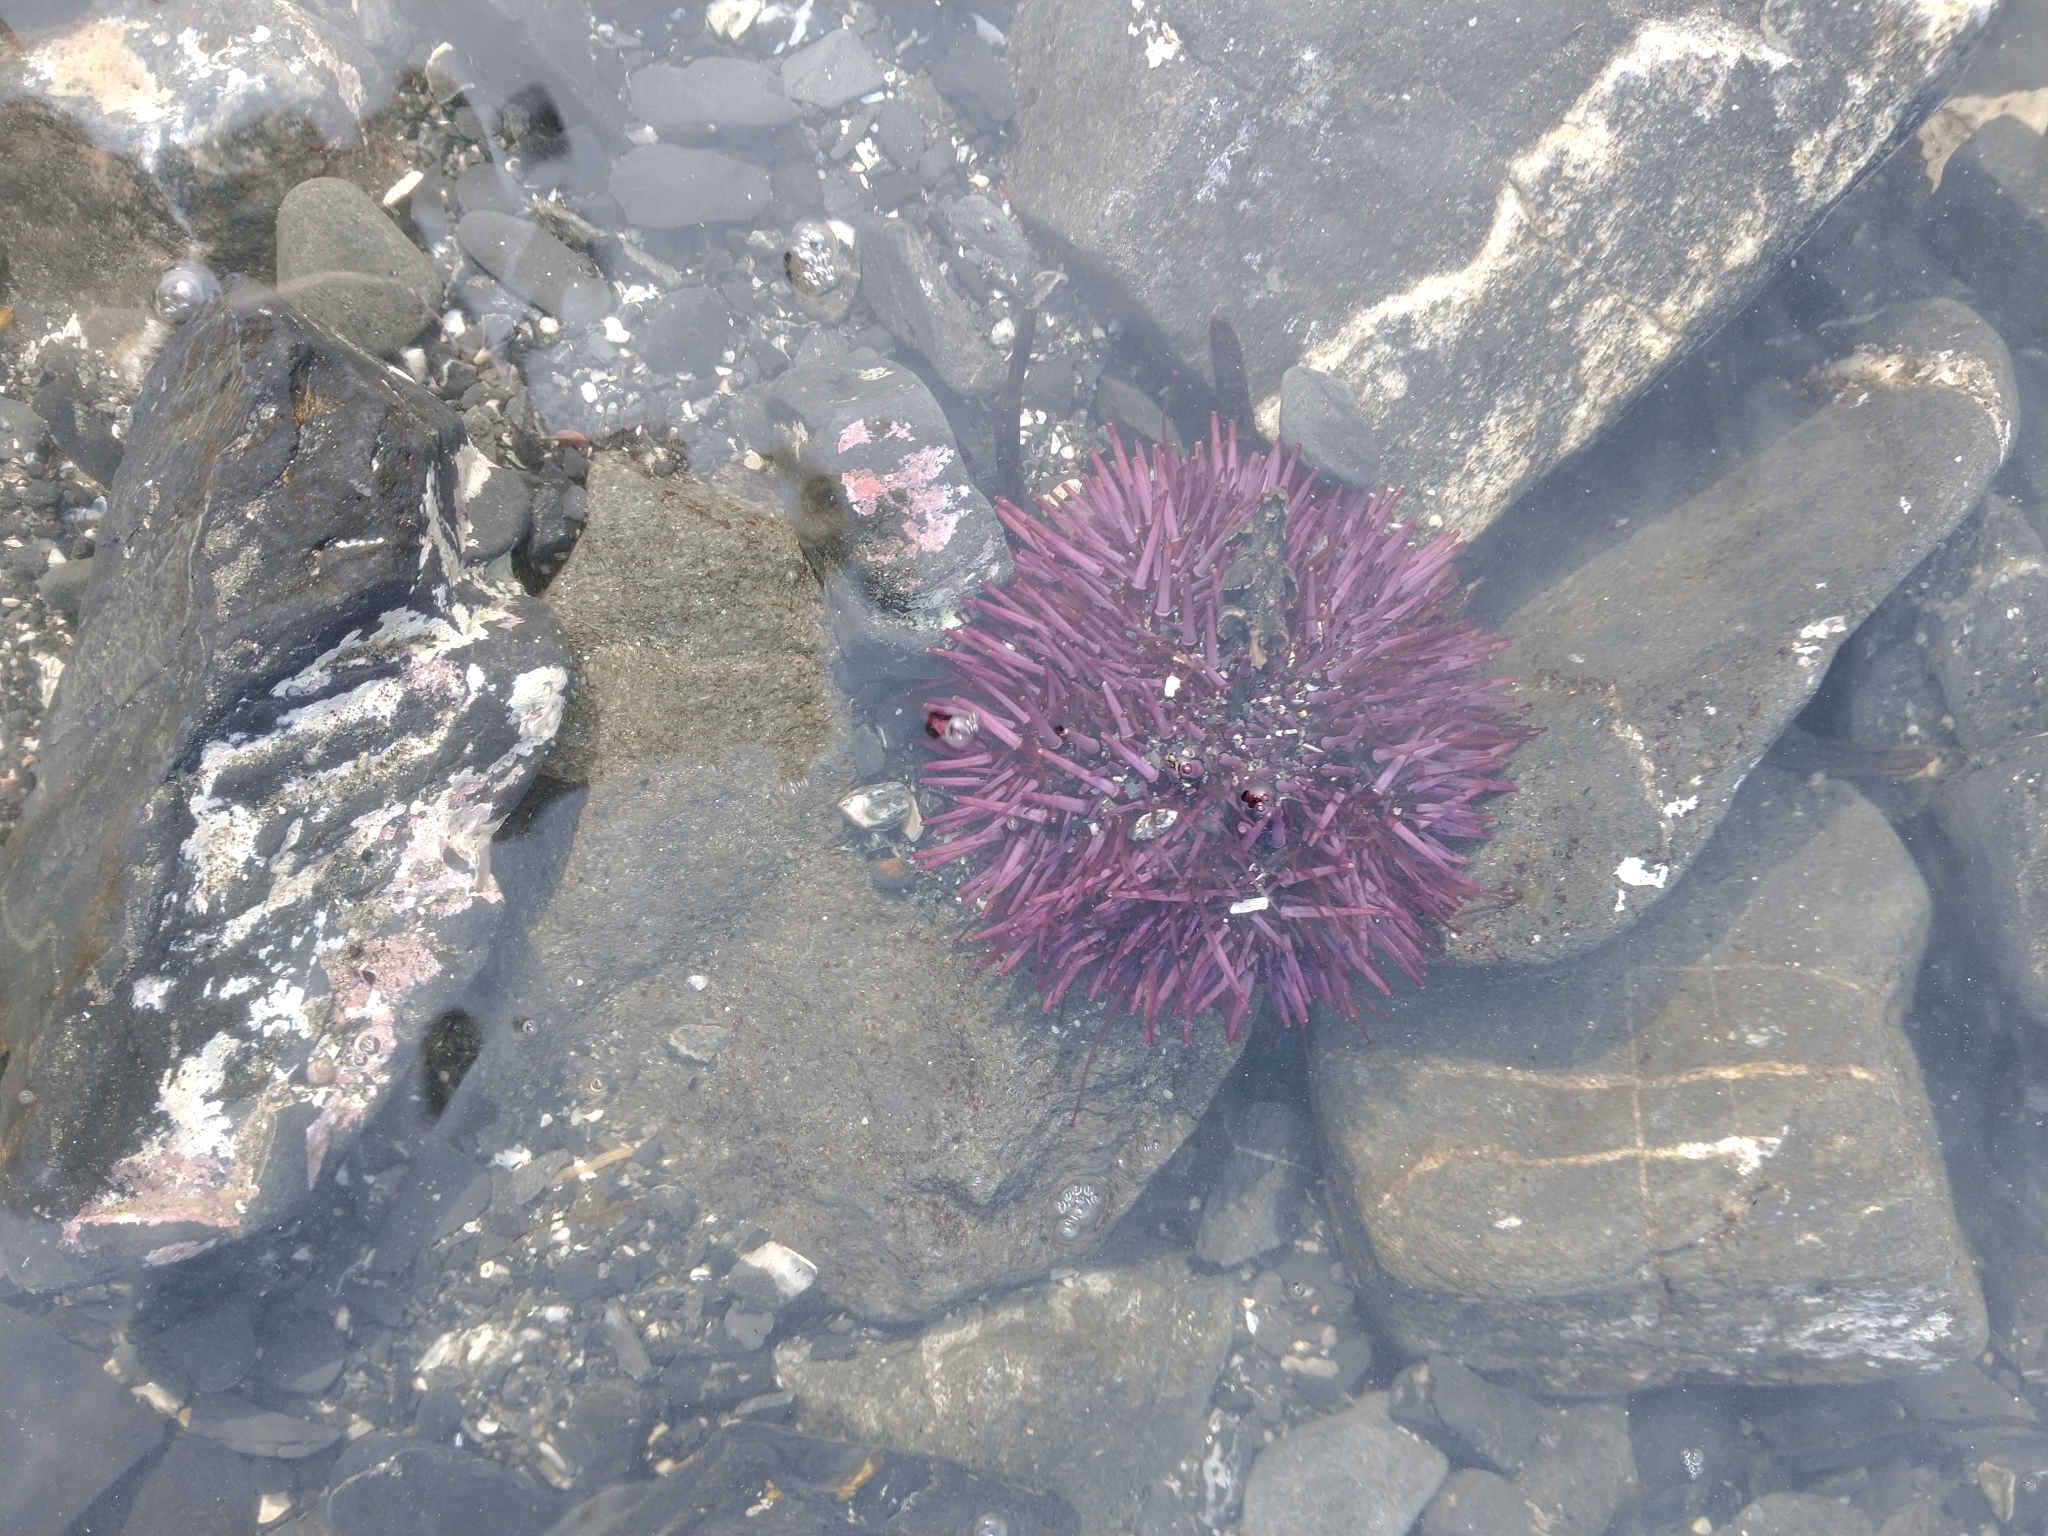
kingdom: Animalia
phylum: Echinodermata
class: Echinoidea
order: Camarodonta
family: Strongylocentrotidae
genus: Strongylocentrotus
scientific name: Strongylocentrotus purpuratus
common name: Purple sea urchin
